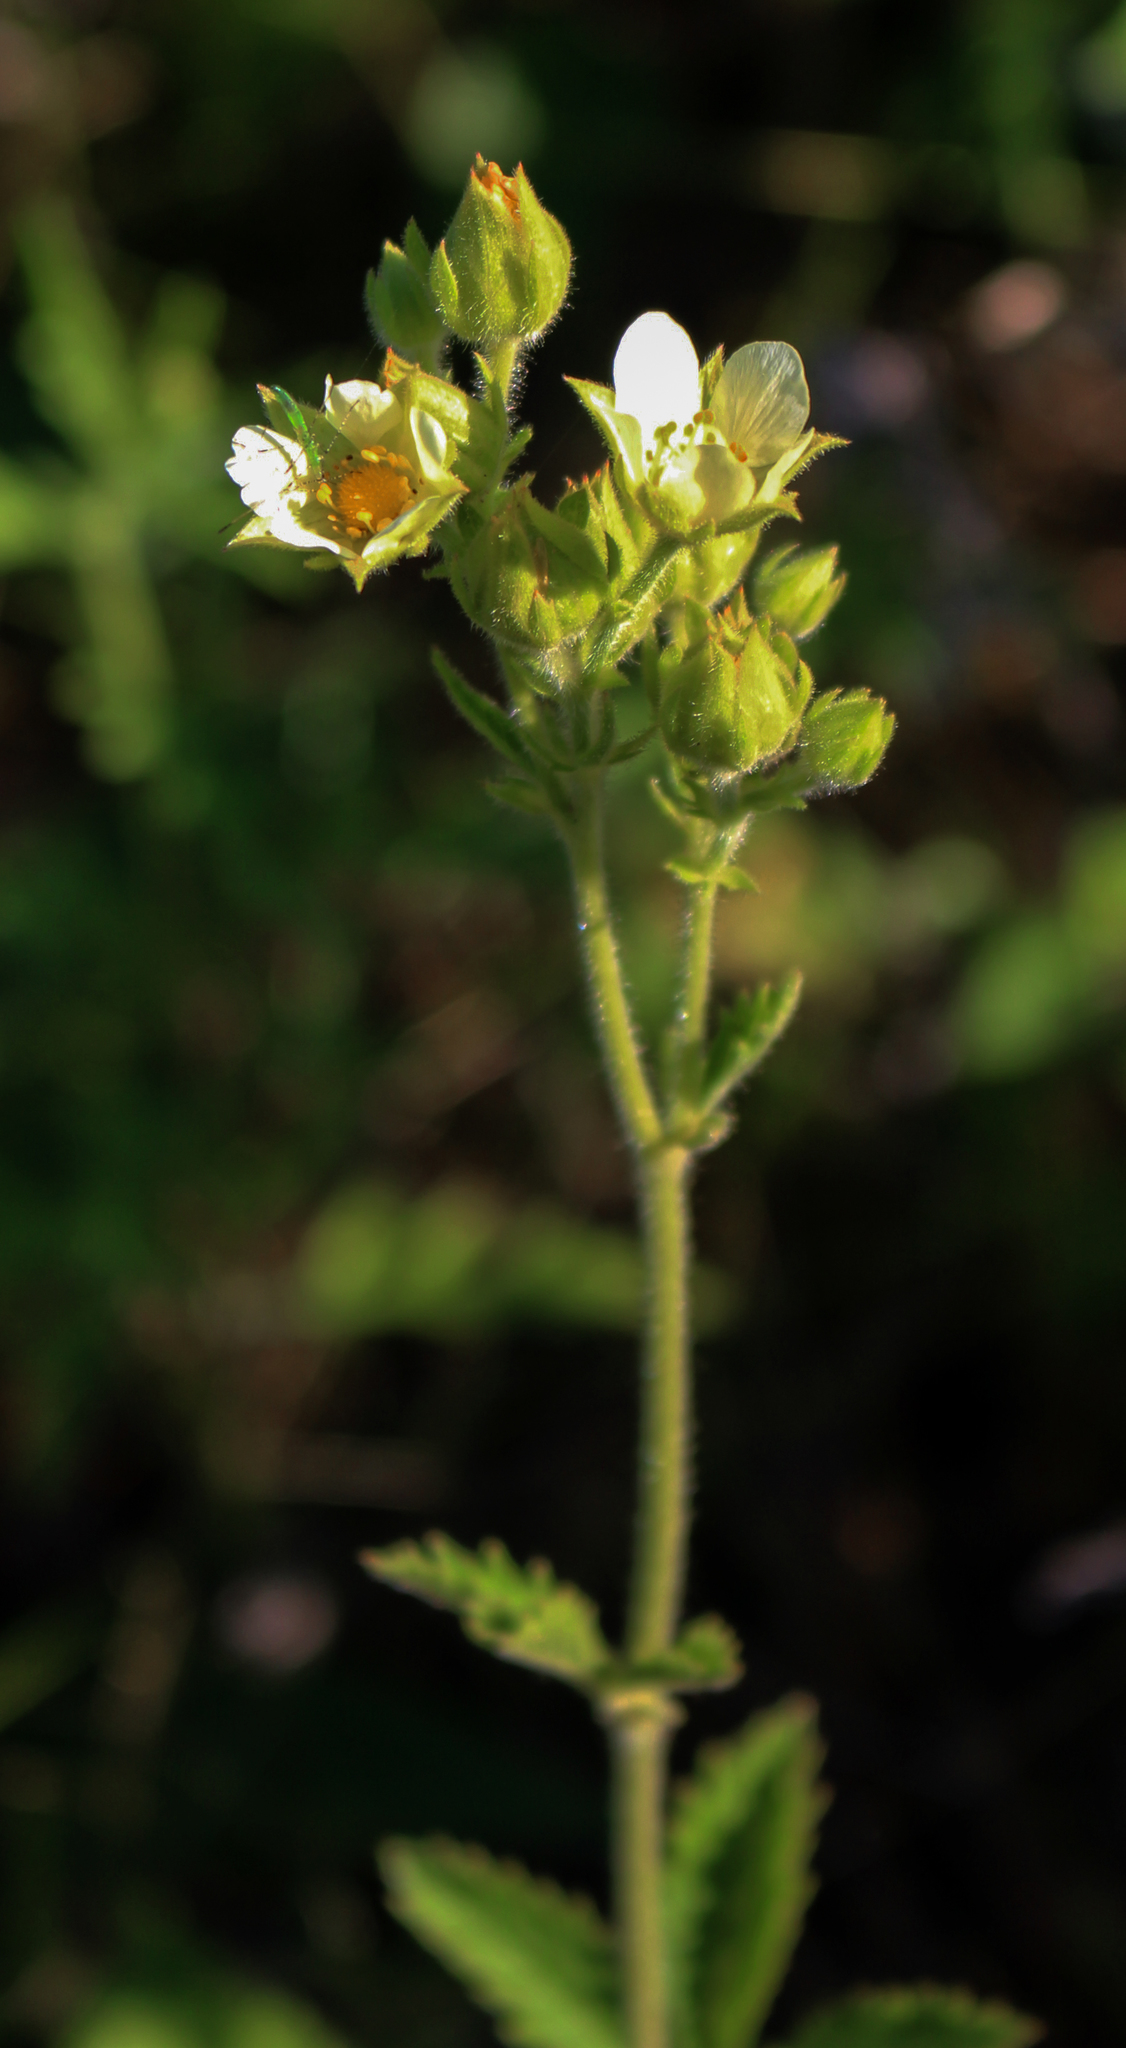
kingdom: Plantae
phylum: Tracheophyta
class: Magnoliopsida
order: Rosales
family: Rosaceae
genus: Drymocallis
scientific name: Drymocallis arguta
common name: Tall cinquefoil
